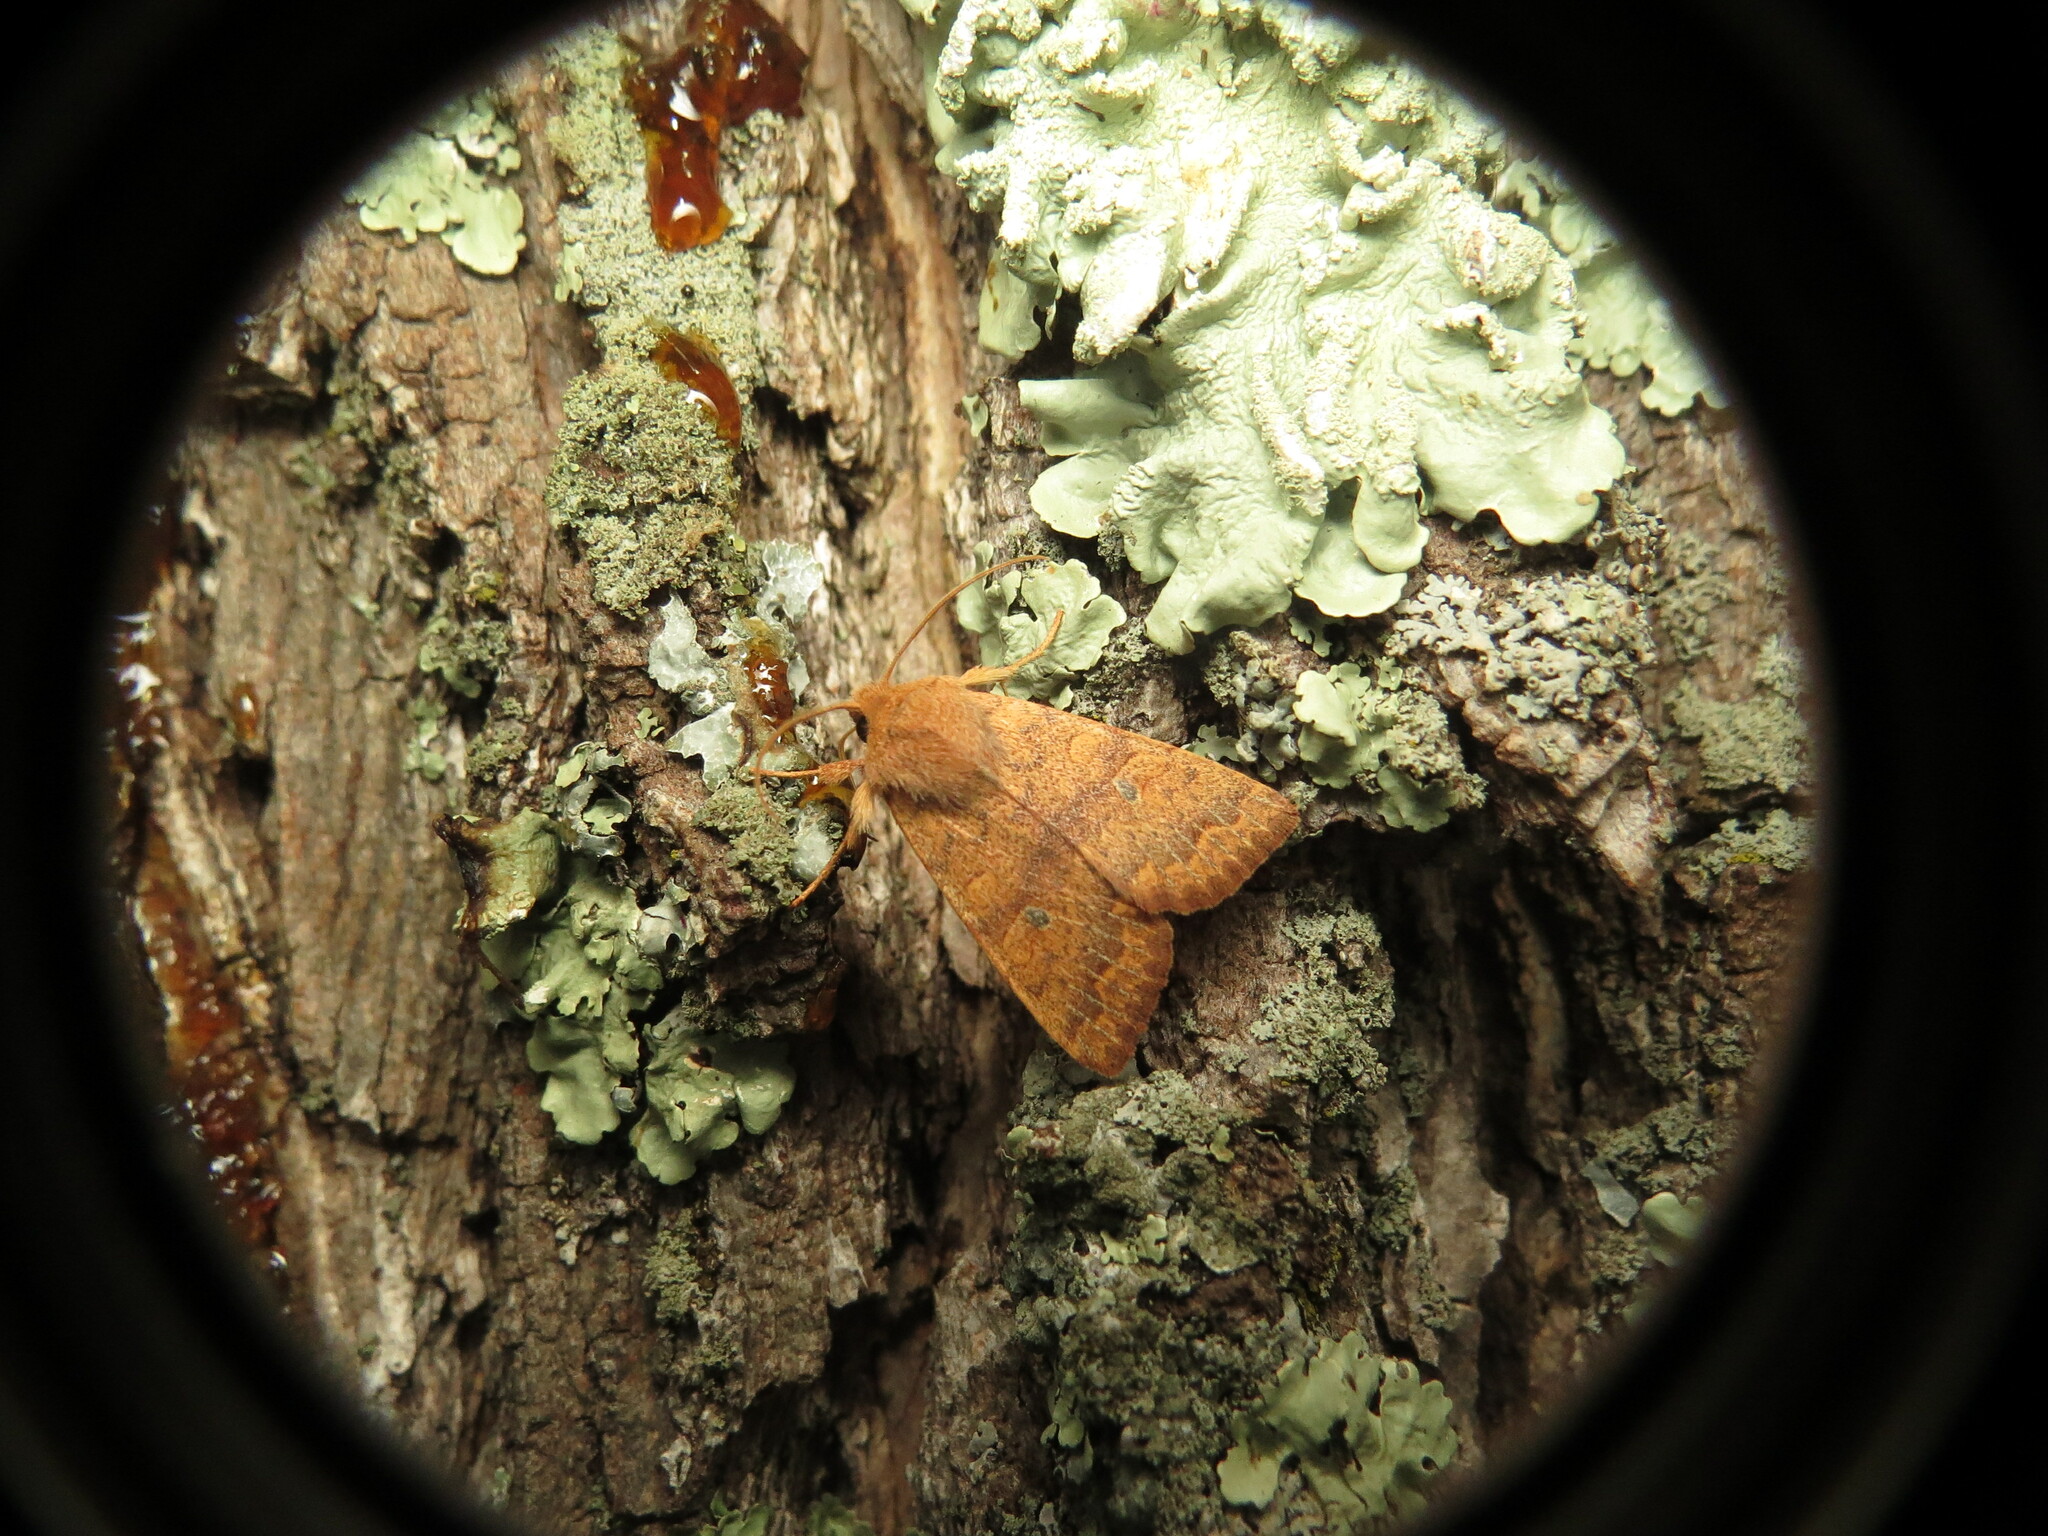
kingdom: Animalia
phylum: Arthropoda
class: Insecta
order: Lepidoptera
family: Noctuidae
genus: Agrochola
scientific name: Agrochola bicolorago
